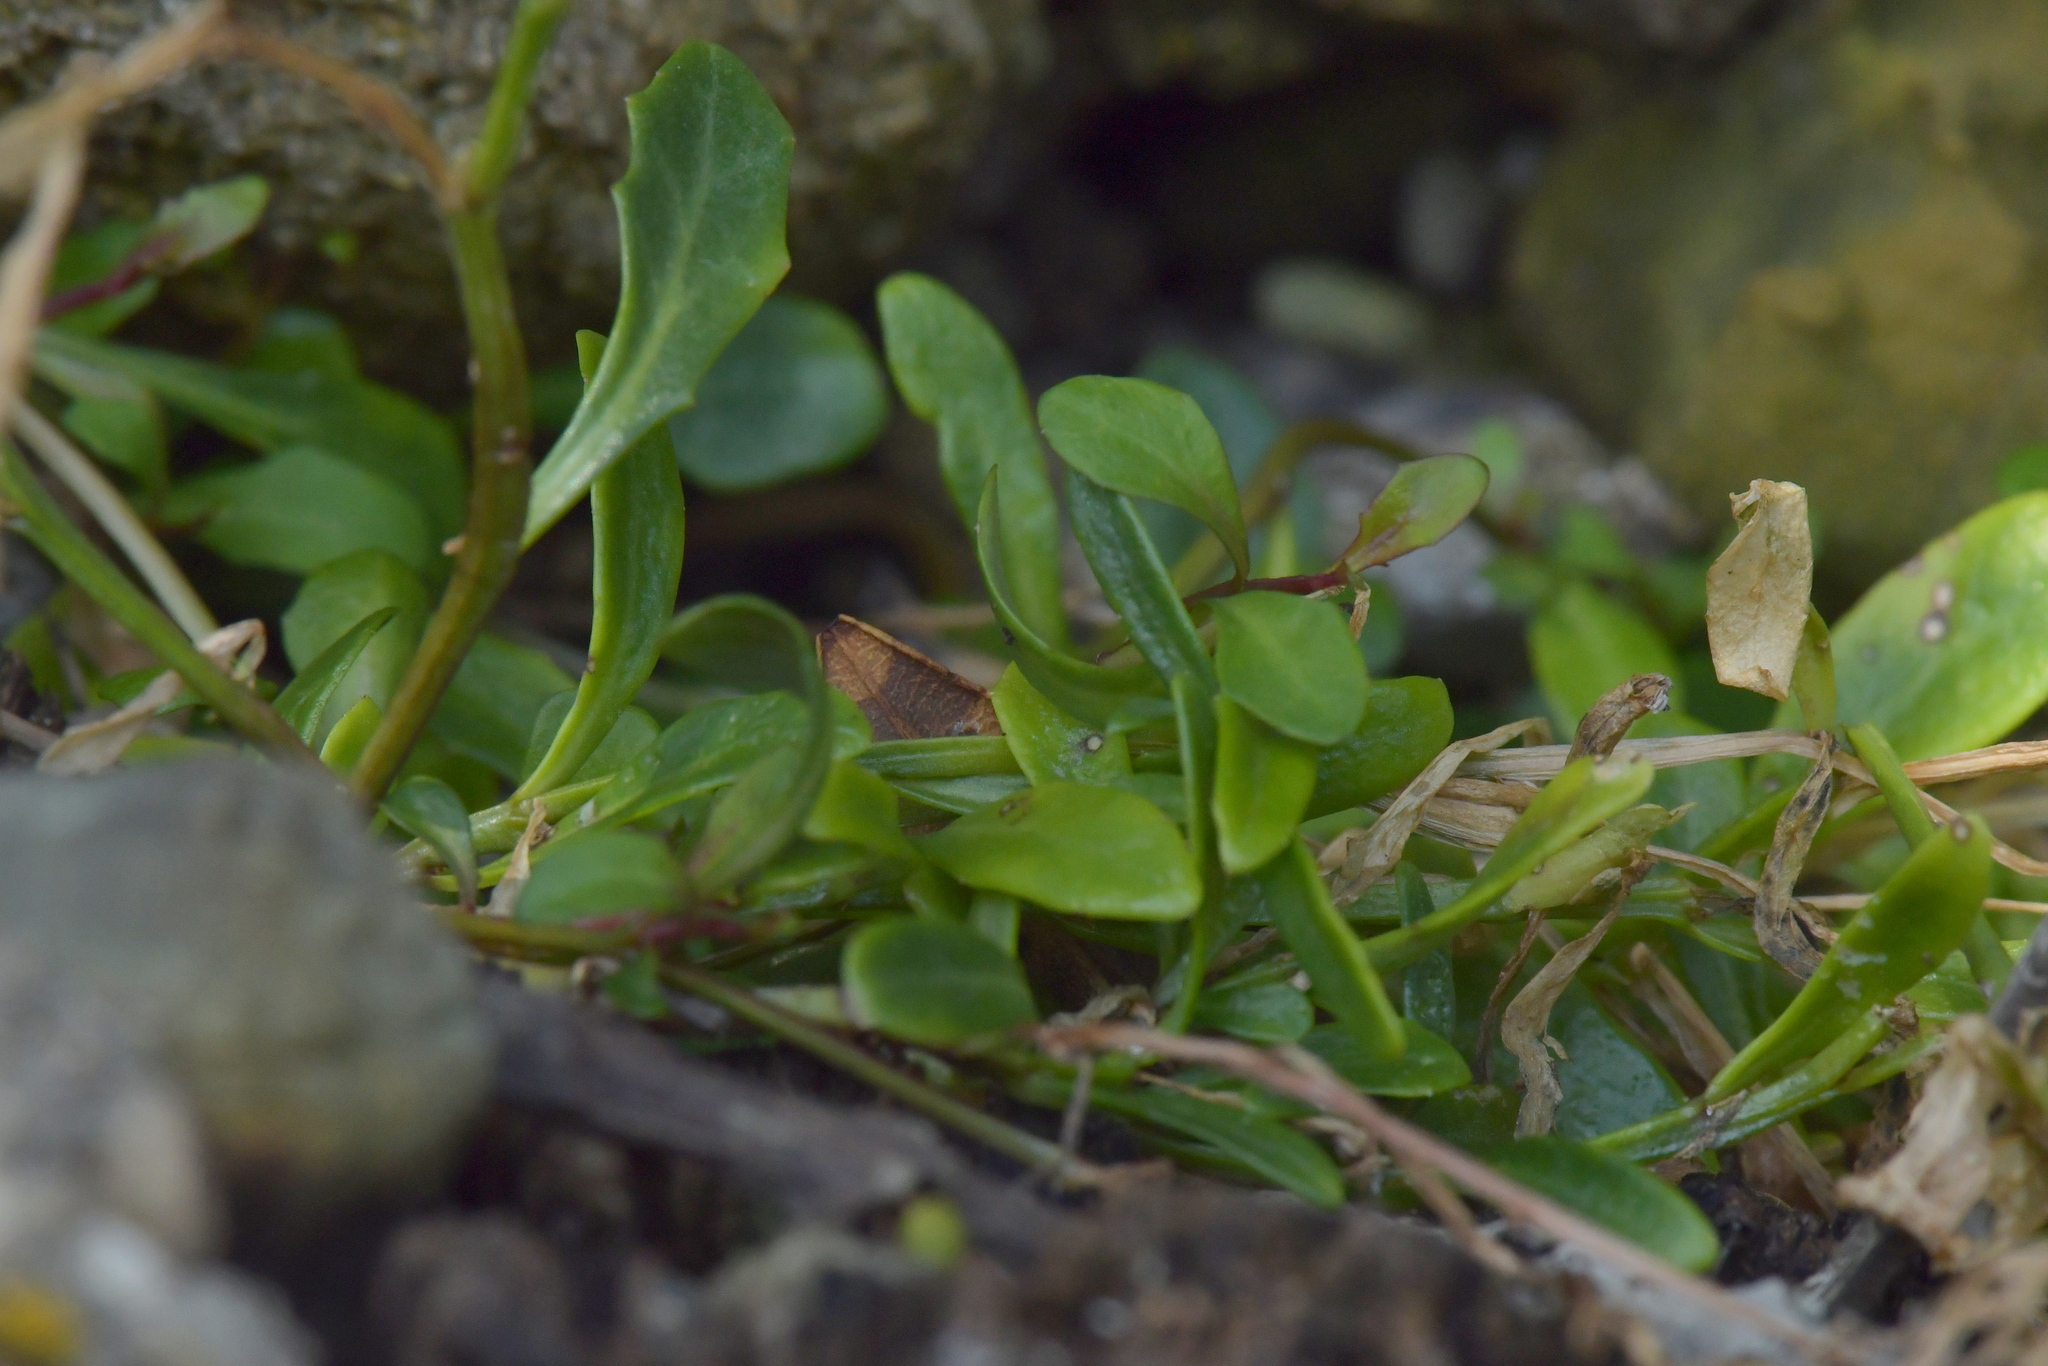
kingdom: Plantae
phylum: Tracheophyta
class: Magnoliopsida
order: Asterales
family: Campanulaceae
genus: Lobelia
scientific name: Lobelia anceps
